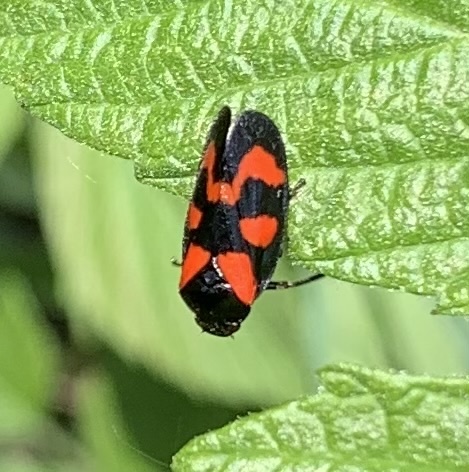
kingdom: Animalia
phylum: Arthropoda
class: Insecta
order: Hemiptera
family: Cercopidae
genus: Cercopis
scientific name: Cercopis vulnerata
